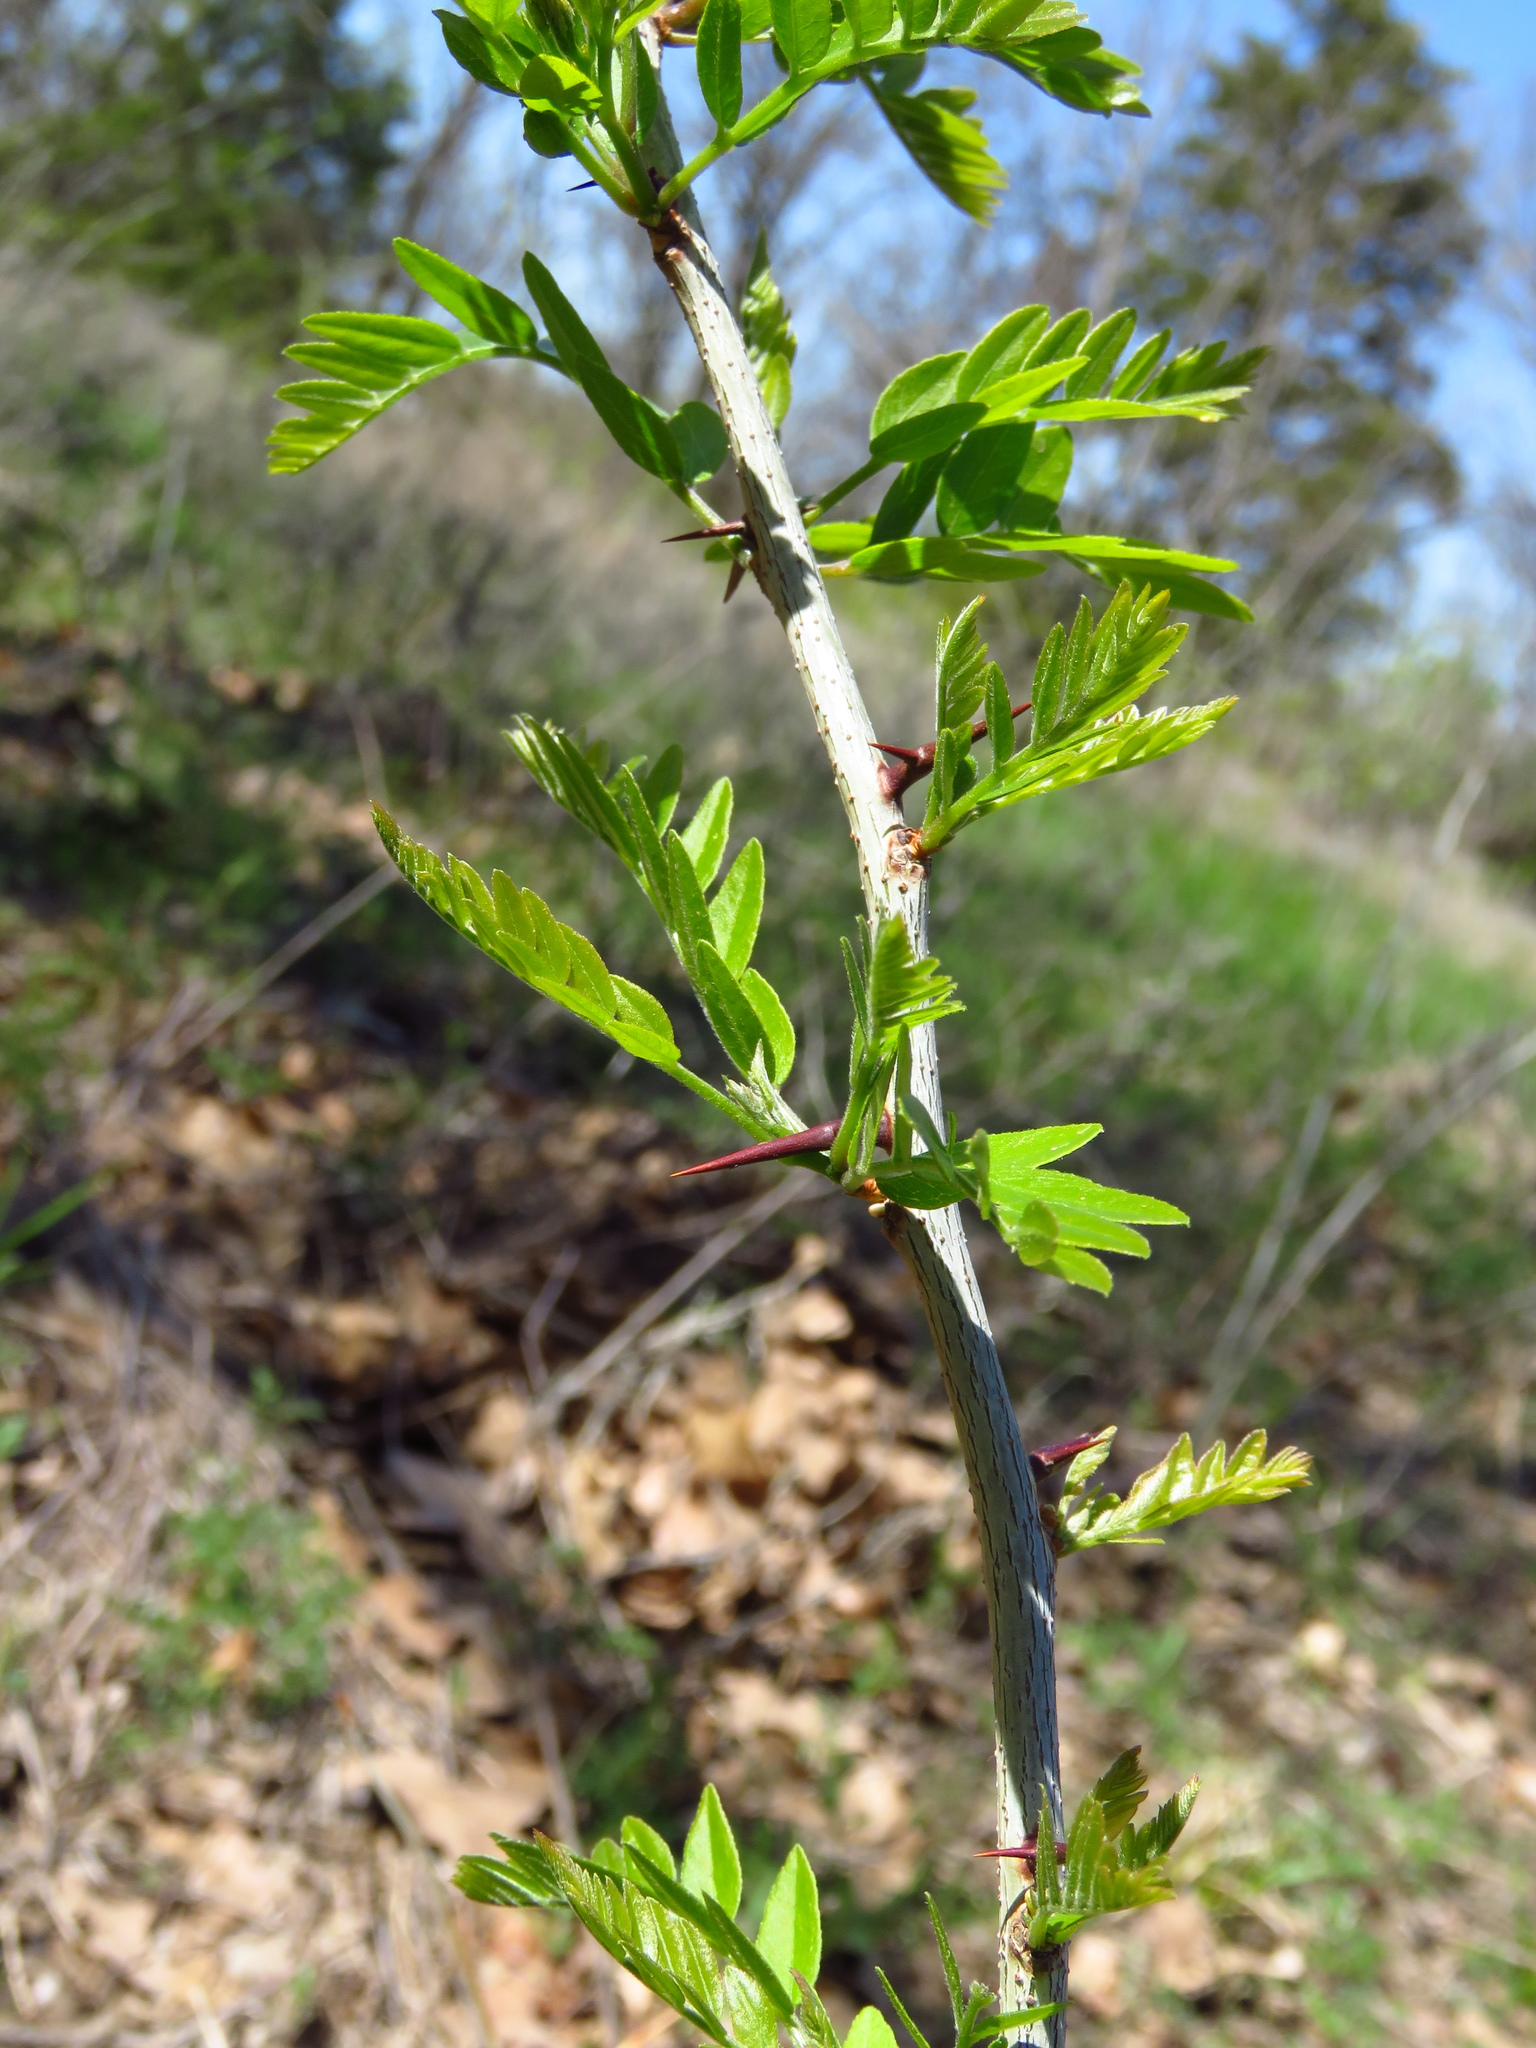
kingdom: Plantae
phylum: Tracheophyta
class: Magnoliopsida
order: Fabales
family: Fabaceae
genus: Gleditsia
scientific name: Gleditsia triacanthos
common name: Common honeylocust
